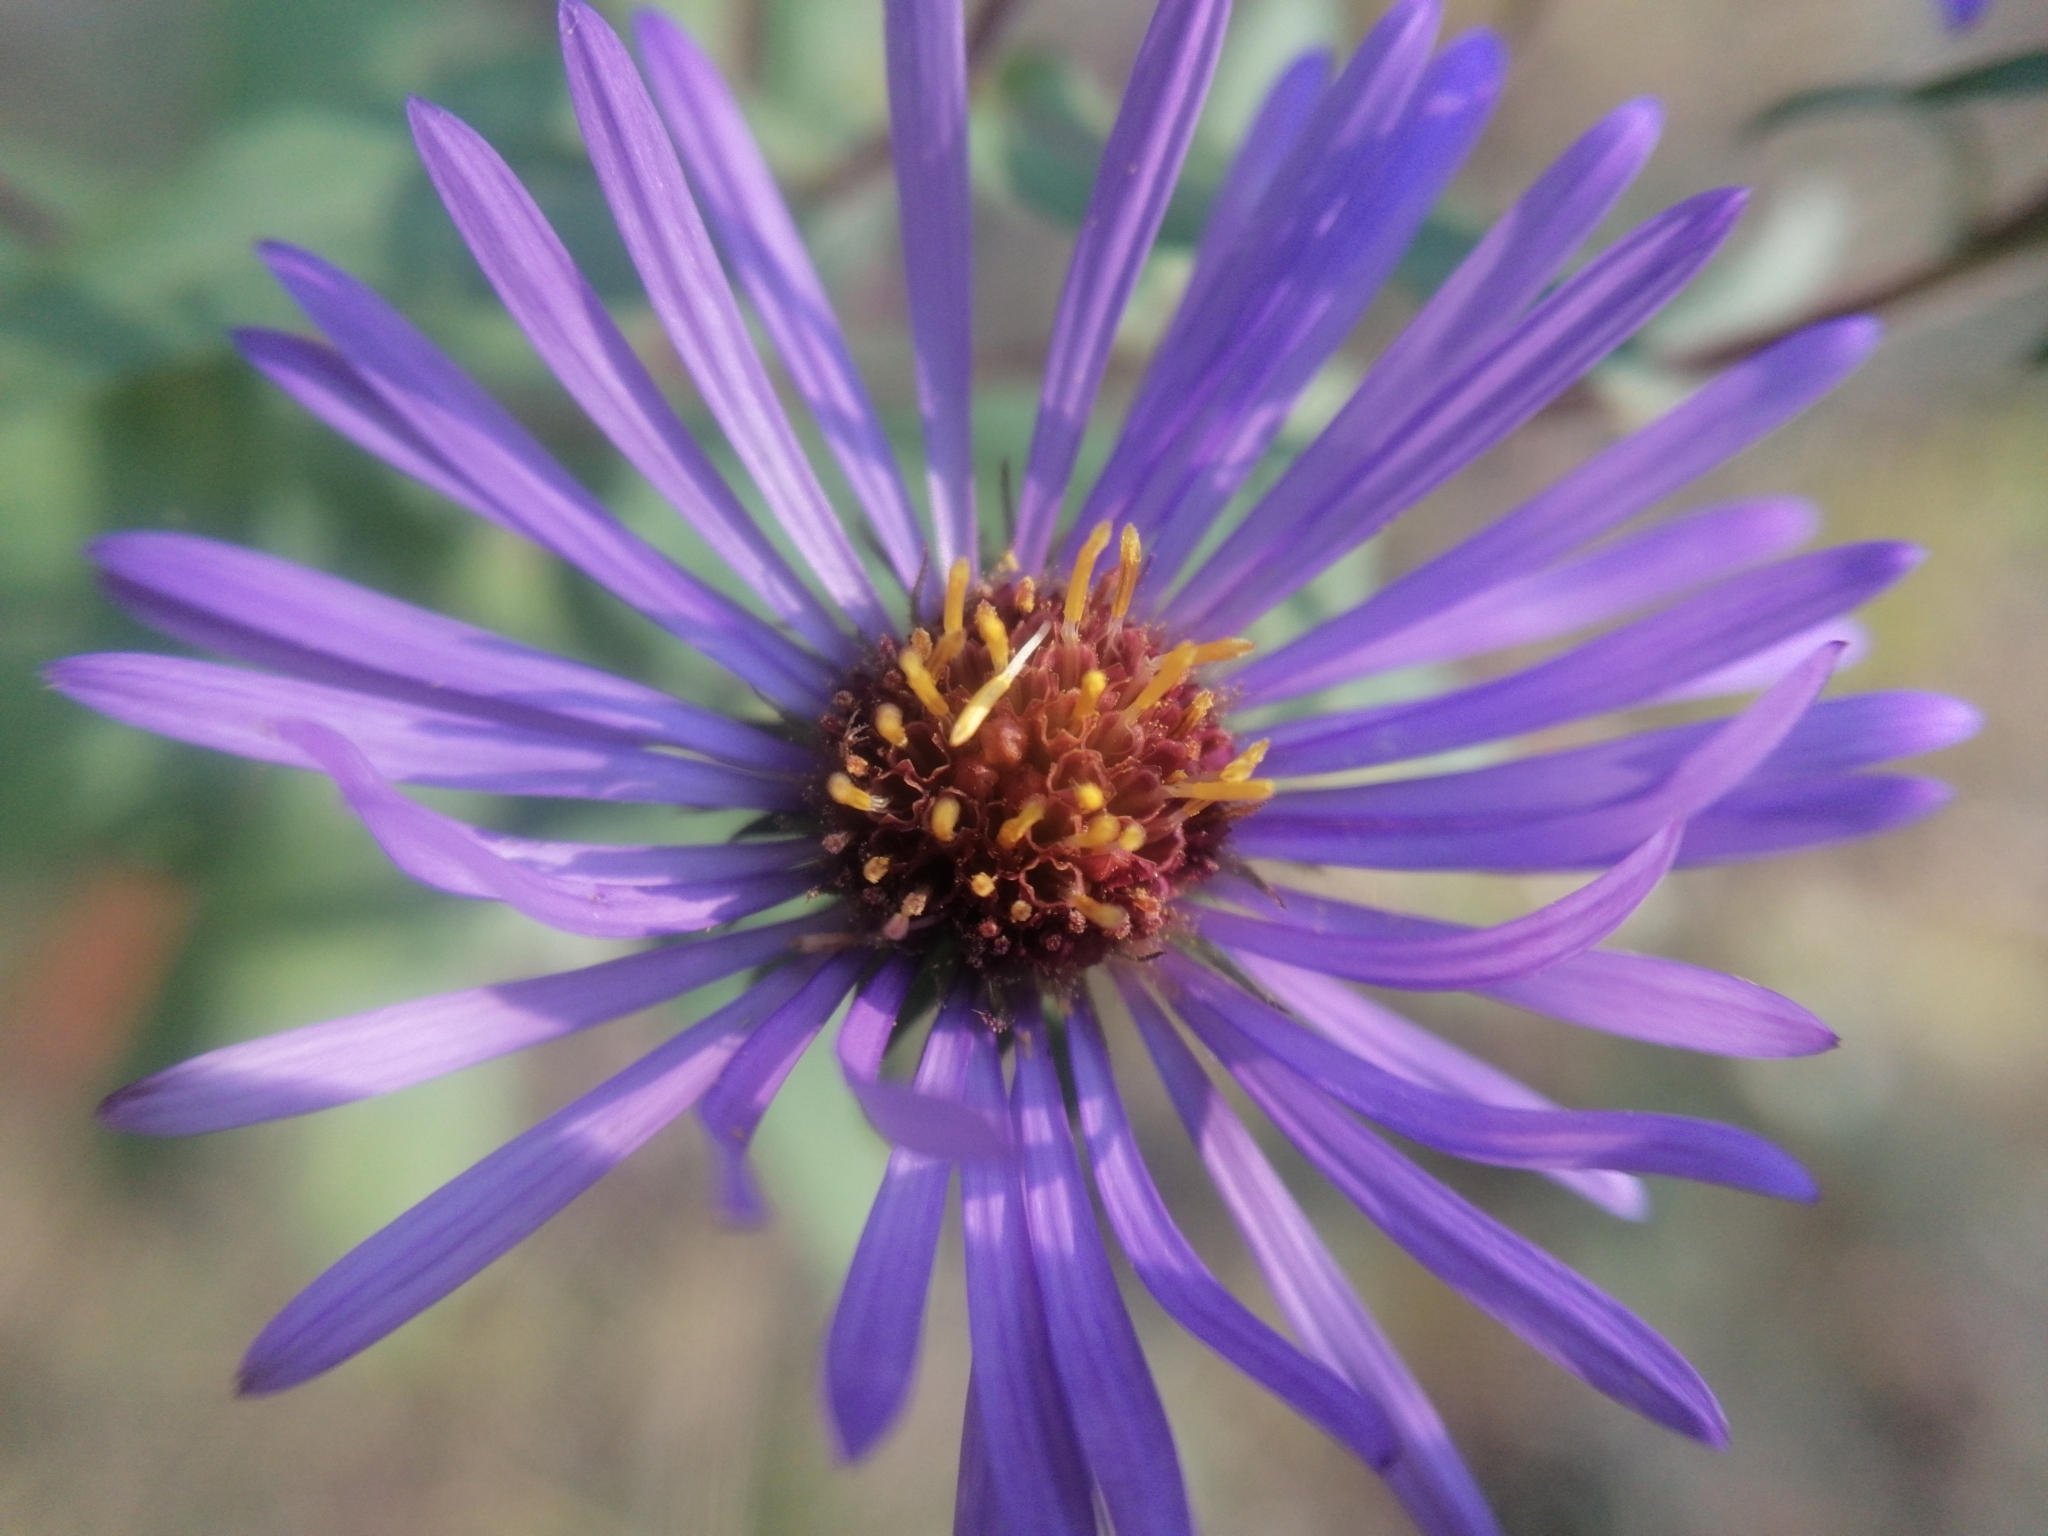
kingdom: Plantae
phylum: Tracheophyta
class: Magnoliopsida
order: Asterales
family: Asteraceae
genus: Symphyotrichum
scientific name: Symphyotrichum novae-angliae
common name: Michaelmas daisy
